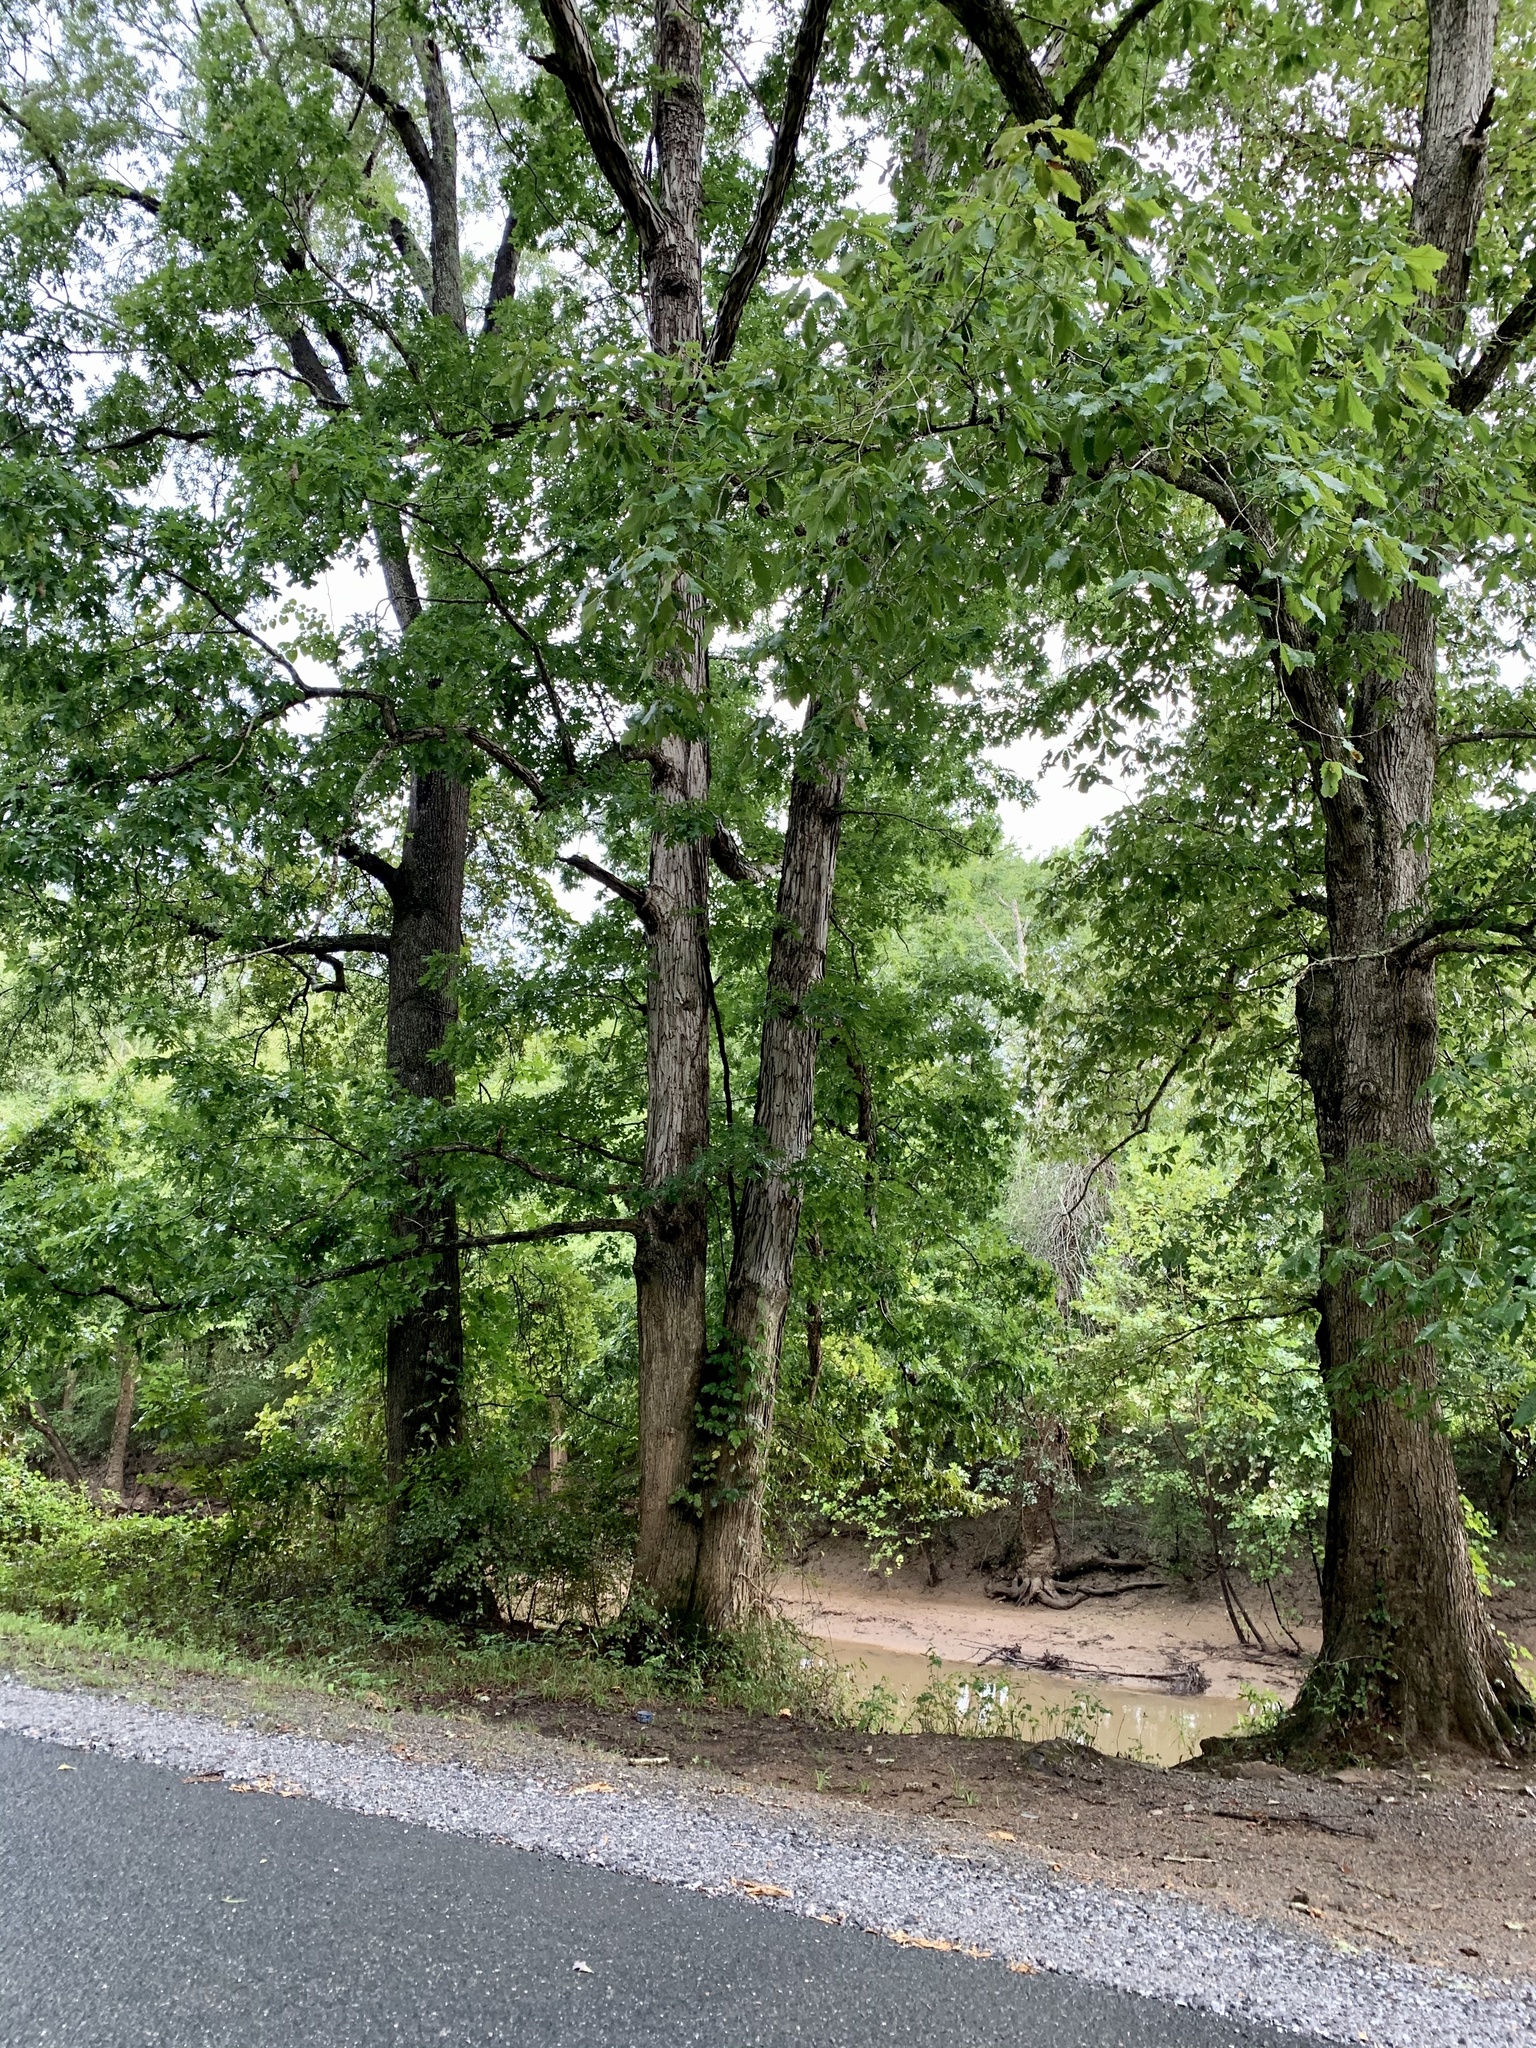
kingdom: Plantae
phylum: Tracheophyta
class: Magnoliopsida
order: Fagales
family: Fagaceae
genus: Quercus
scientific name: Quercus alba
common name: White oak
